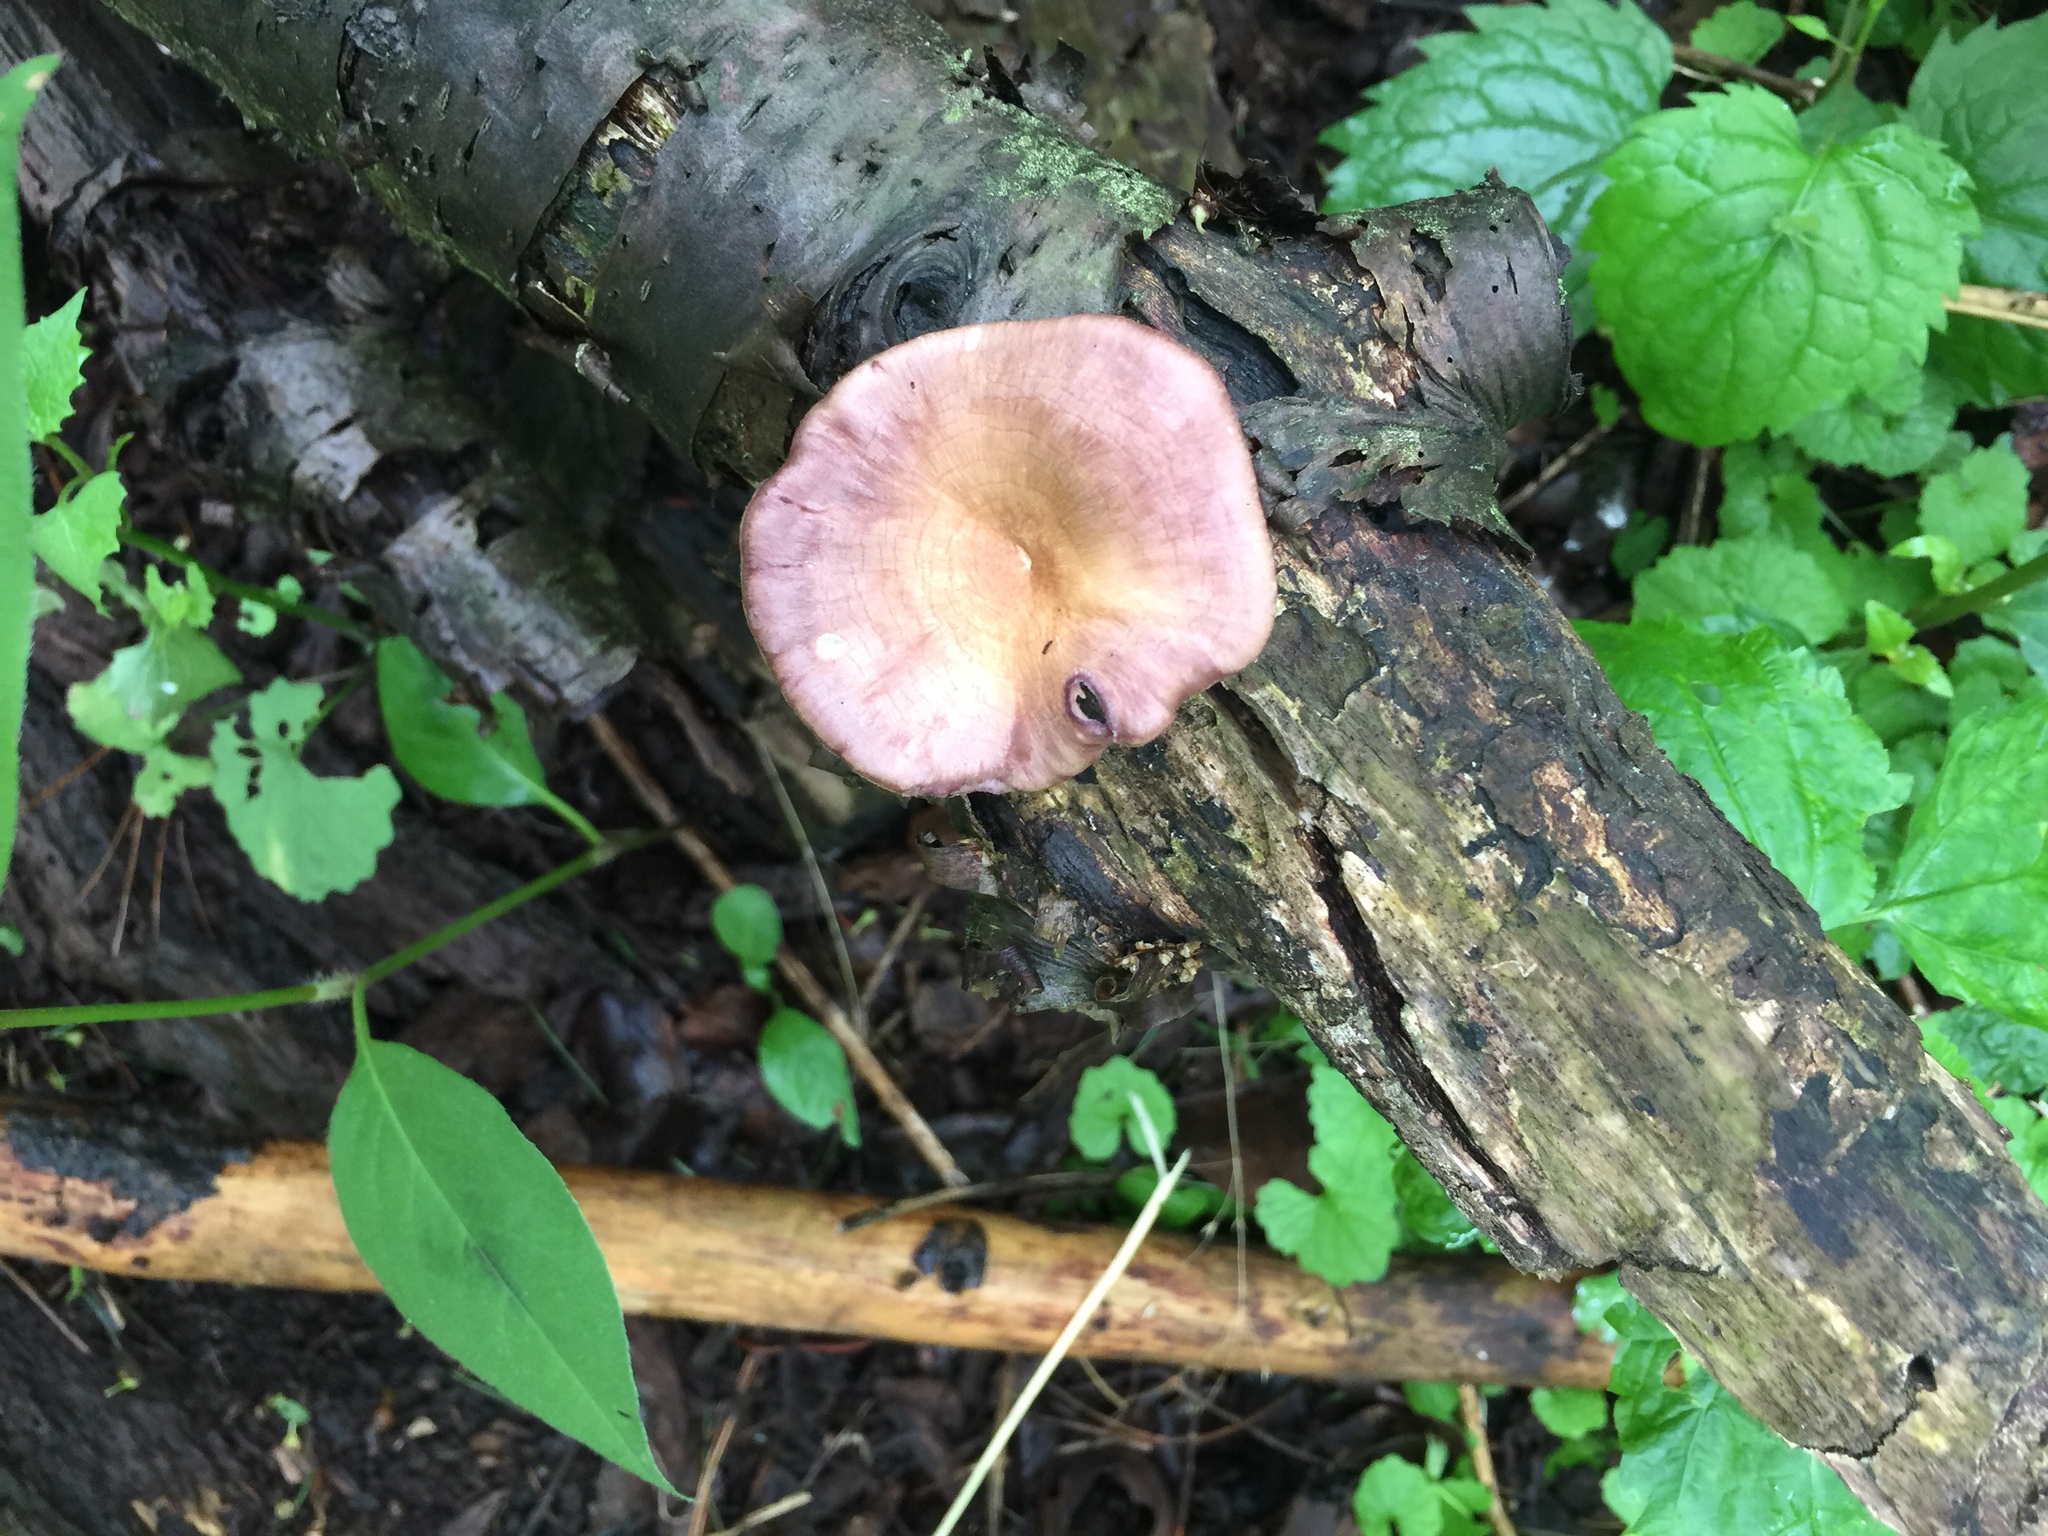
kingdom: Fungi
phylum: Basidiomycota
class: Agaricomycetes
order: Polyporales
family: Panaceae
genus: Panus
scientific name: Panus conchatus
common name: Lilac oysterling
